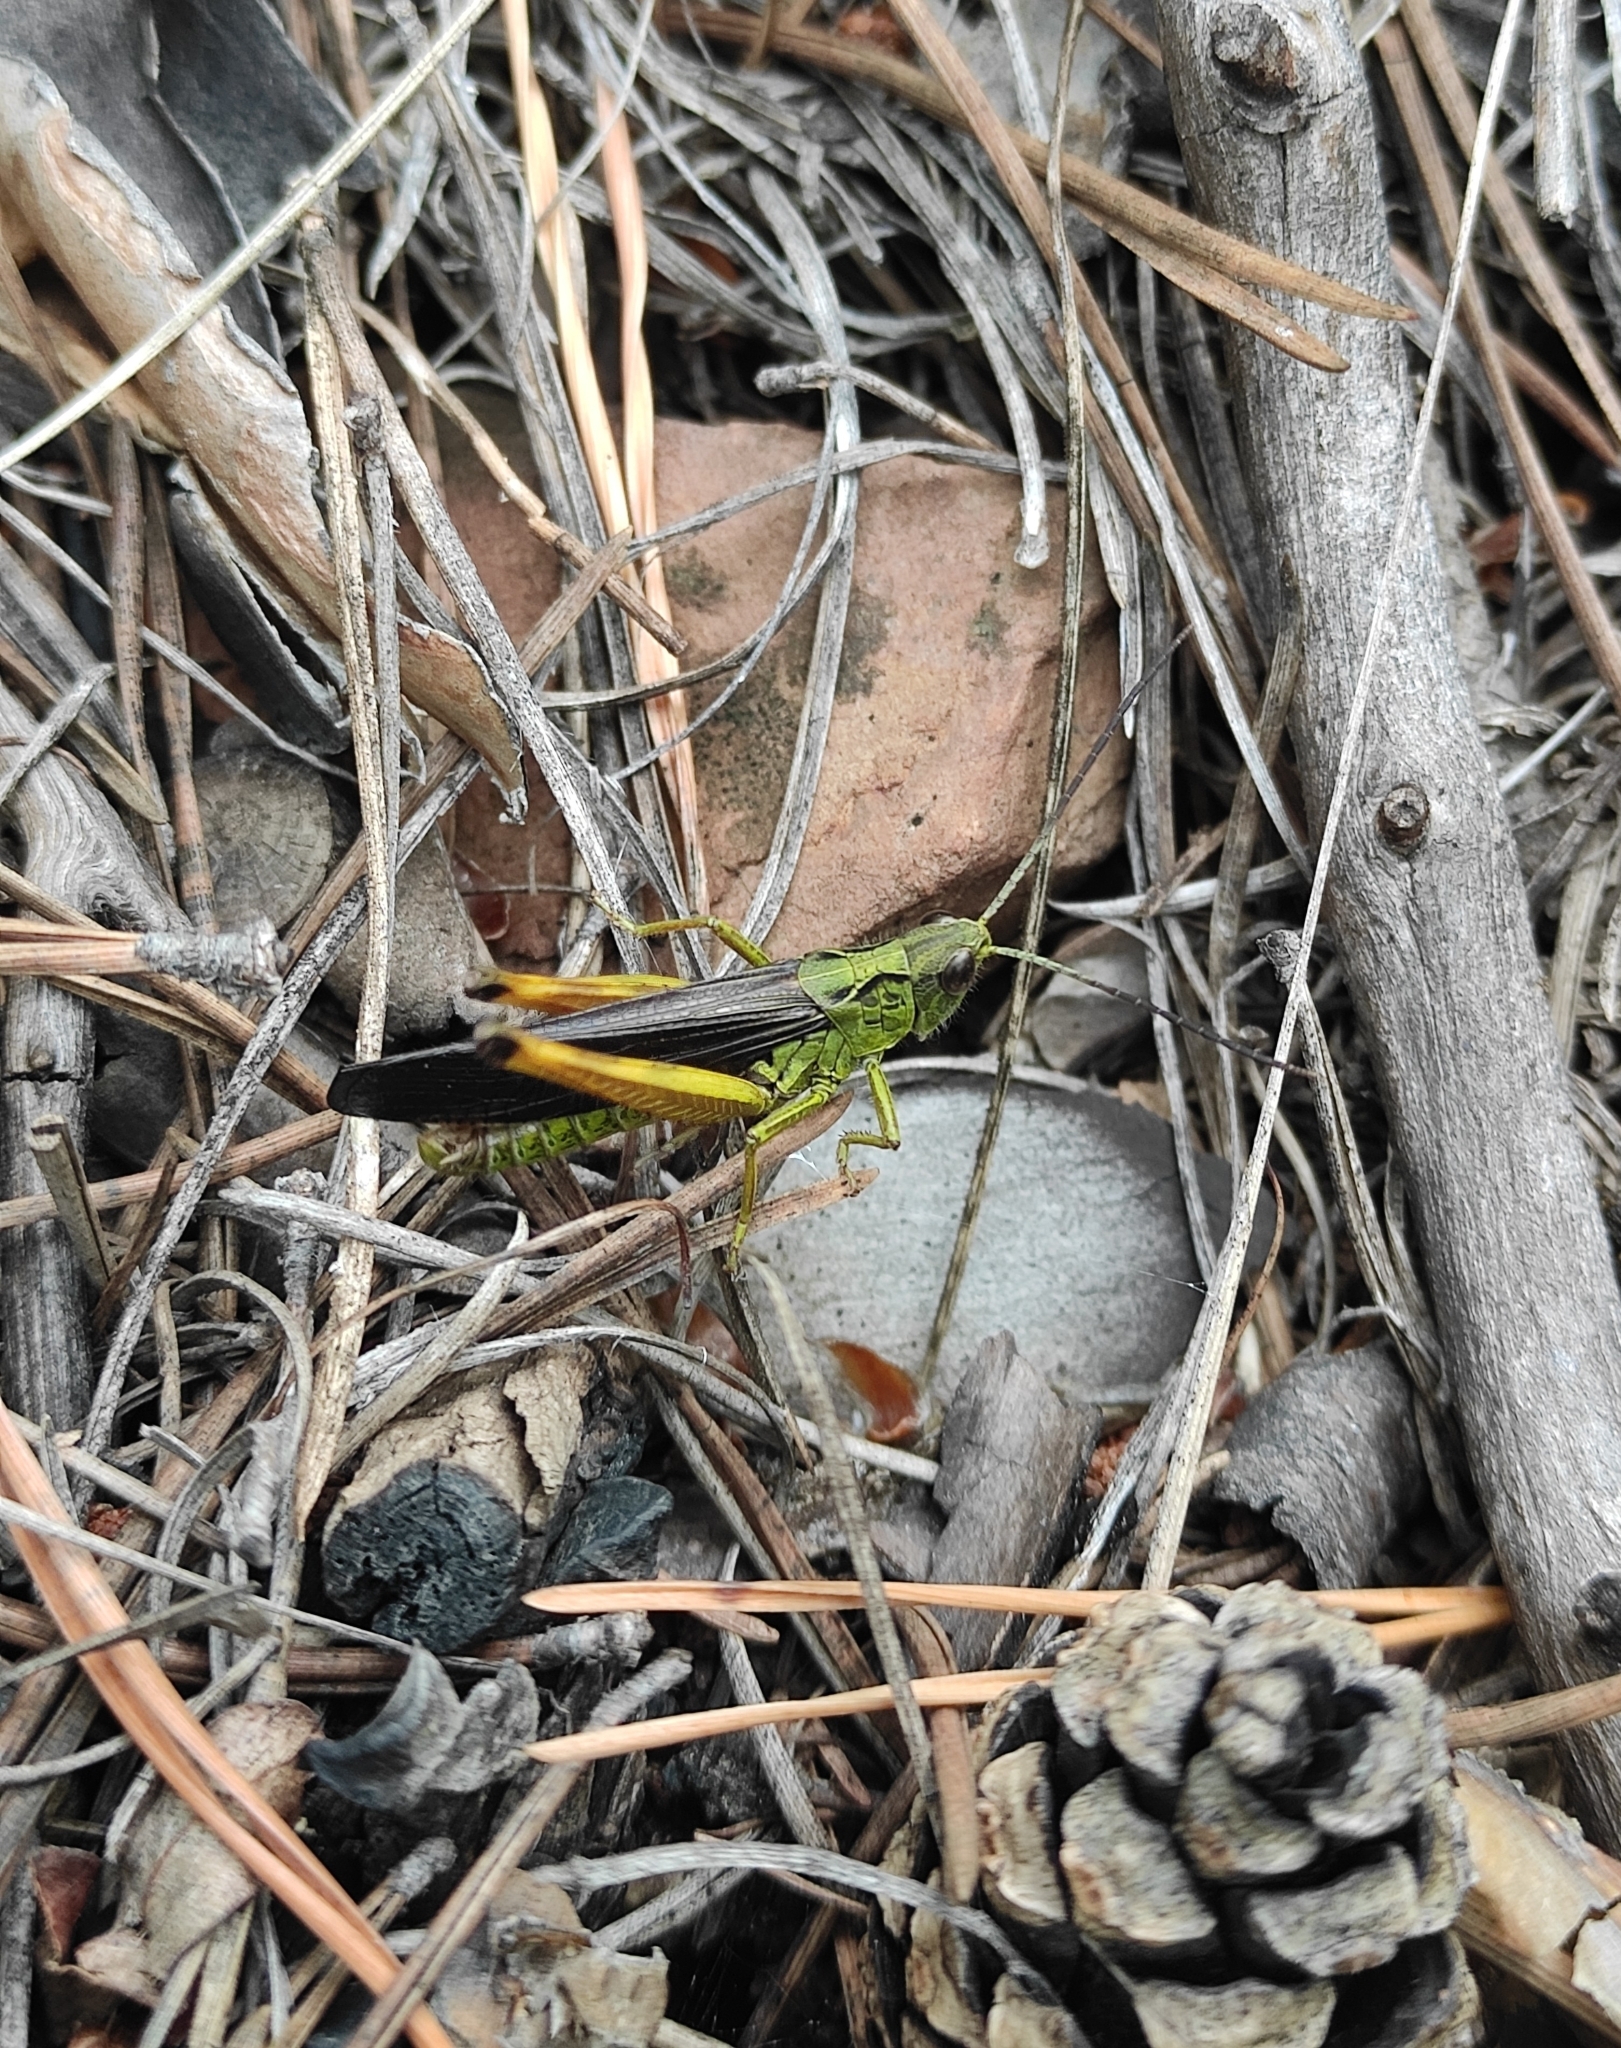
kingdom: Animalia
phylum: Arthropoda
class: Insecta
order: Orthoptera
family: Acrididae
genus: Megaulacobothrus
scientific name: Megaulacobothrus aethalinus
